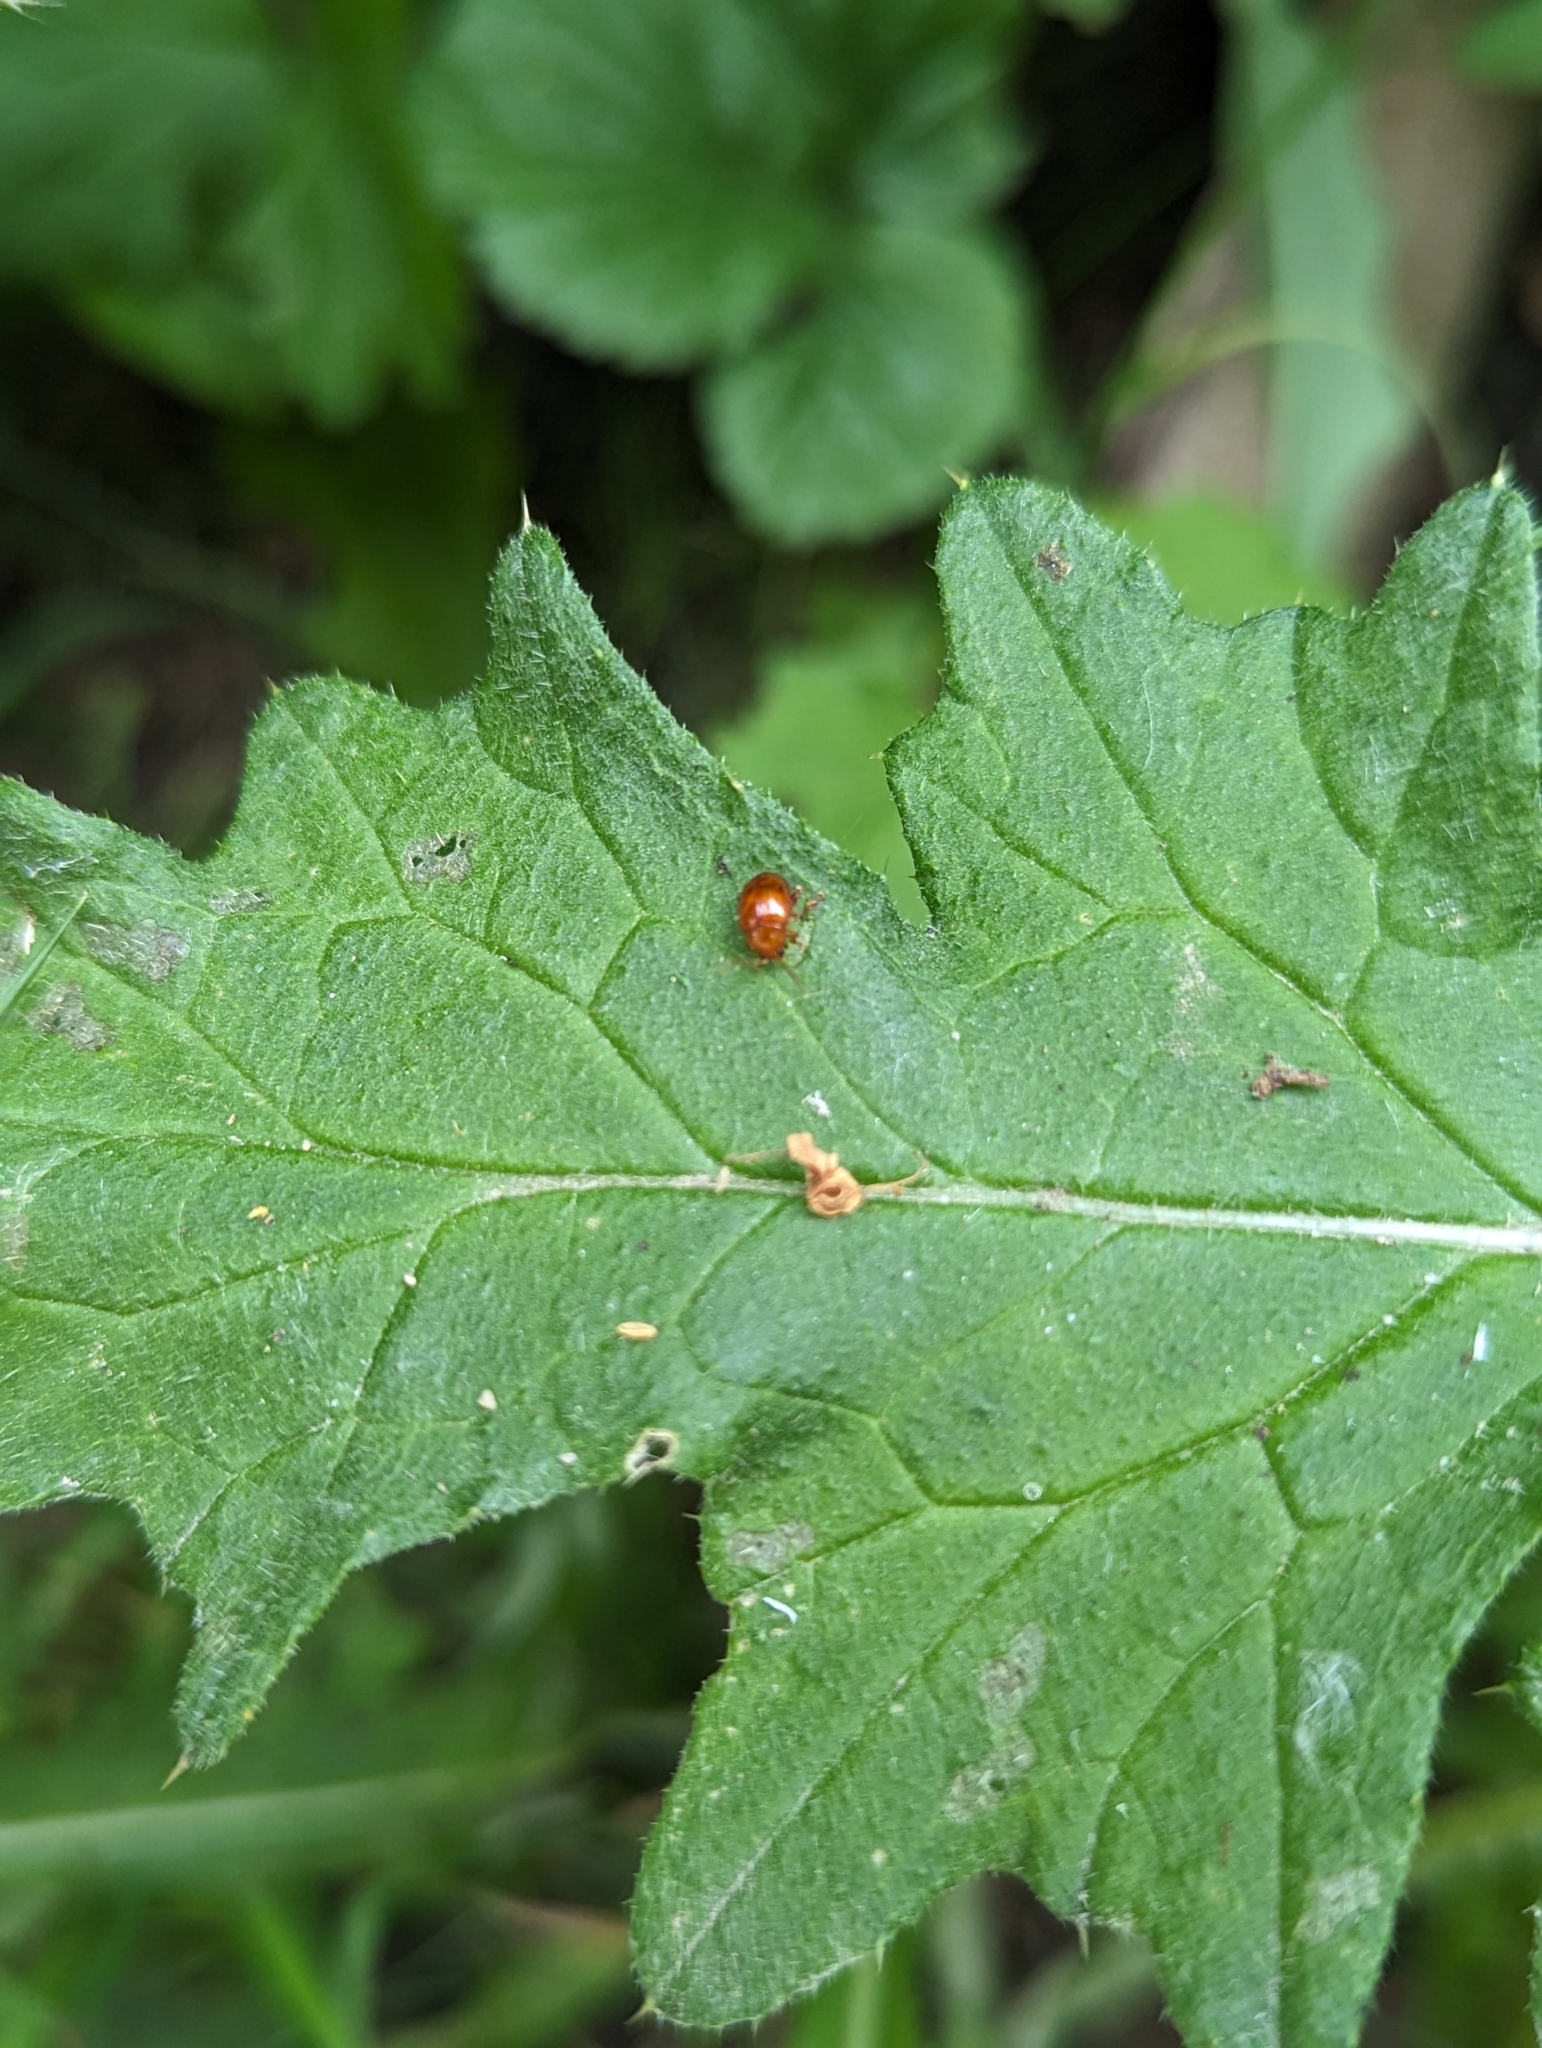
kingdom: Animalia
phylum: Arthropoda
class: Insecta
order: Coleoptera
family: Chrysomelidae
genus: Pistosia
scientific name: Pistosia testacea
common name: Leaf beetle
